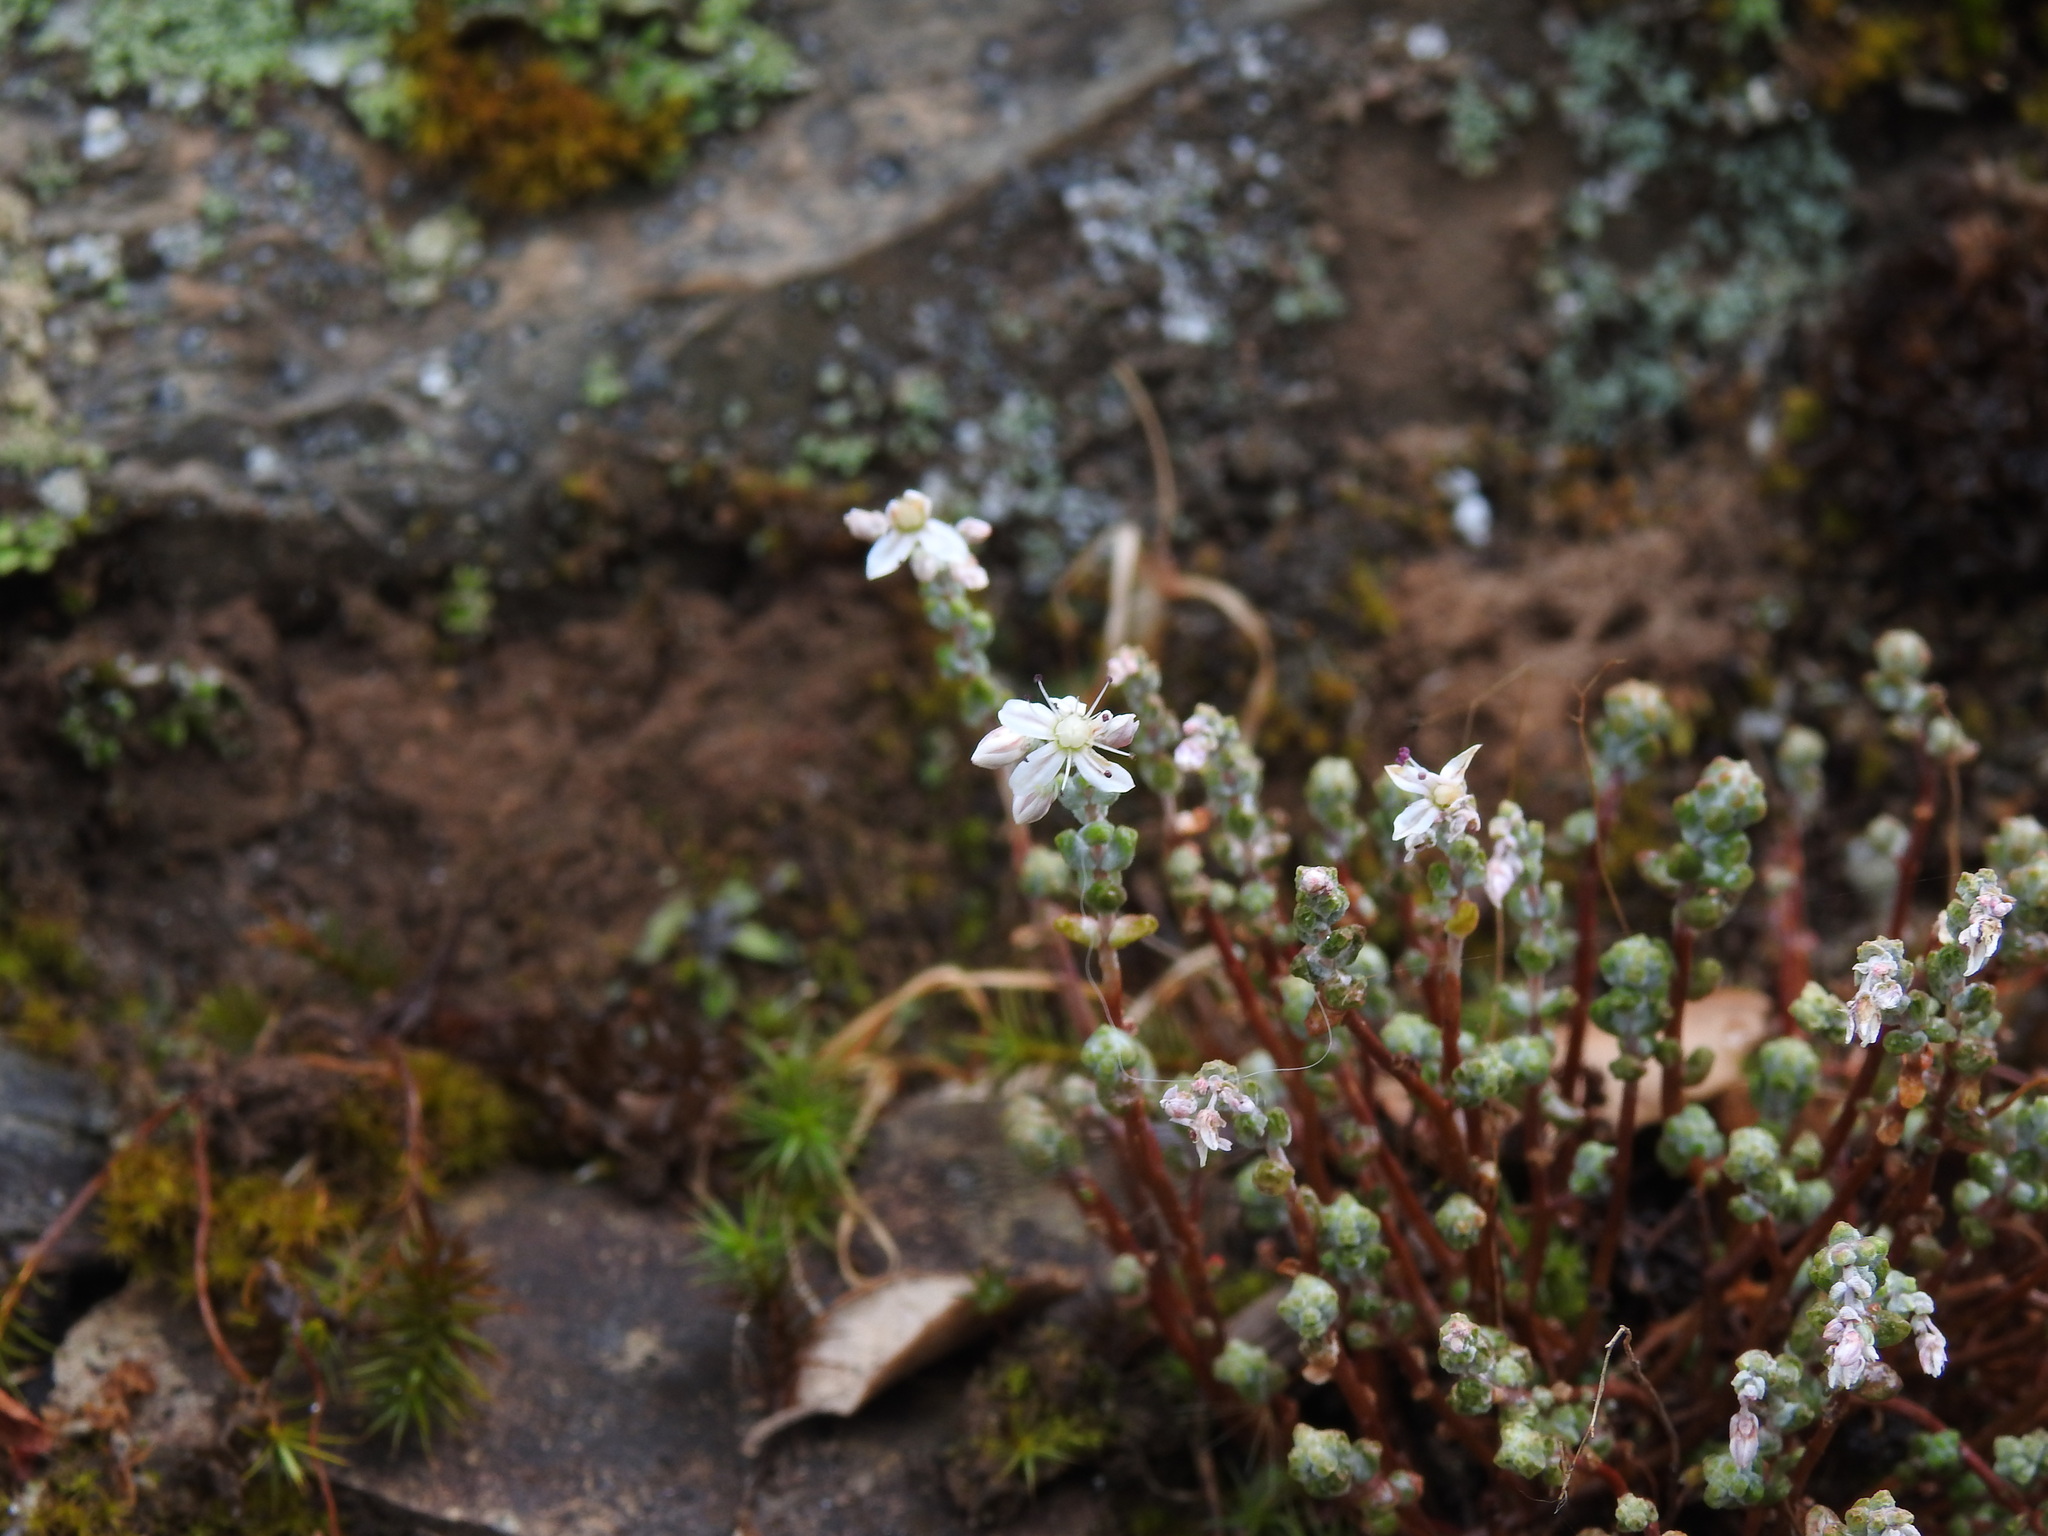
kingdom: Plantae
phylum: Tracheophyta
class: Magnoliopsida
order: Saxifragales
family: Crassulaceae
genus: Sedum
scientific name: Sedum brevifolium
